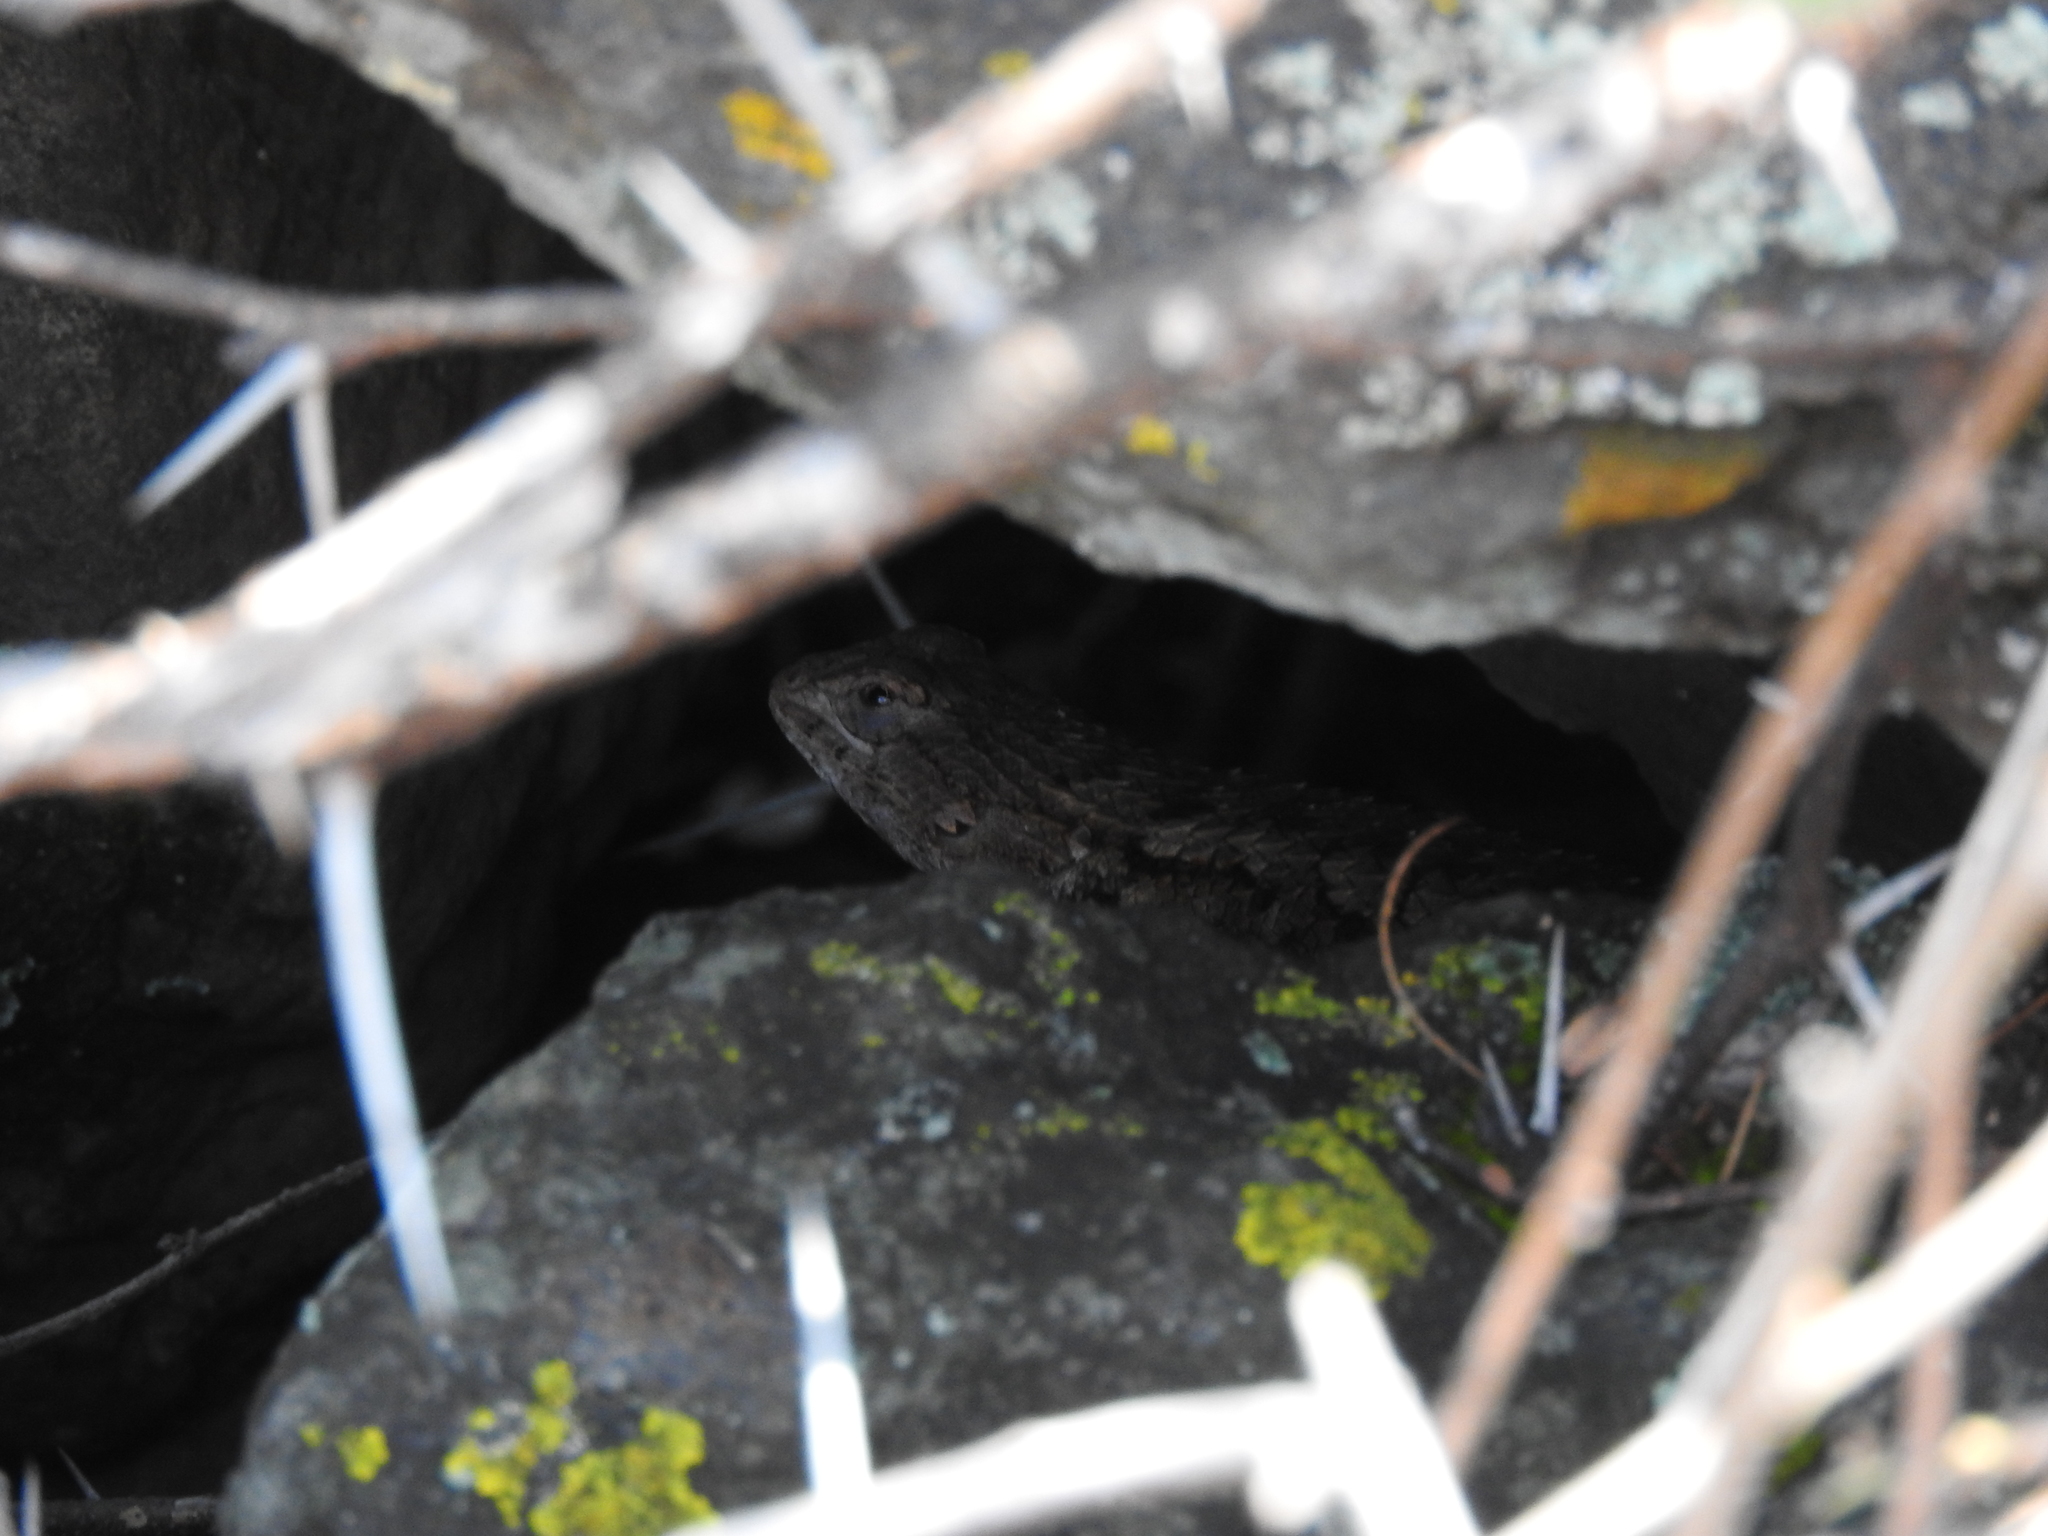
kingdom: Animalia
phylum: Chordata
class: Squamata
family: Phrynosomatidae
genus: Sceloporus
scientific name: Sceloporus spinosus
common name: Blue-spotted spiny lizard [caeruleopunctatus]
